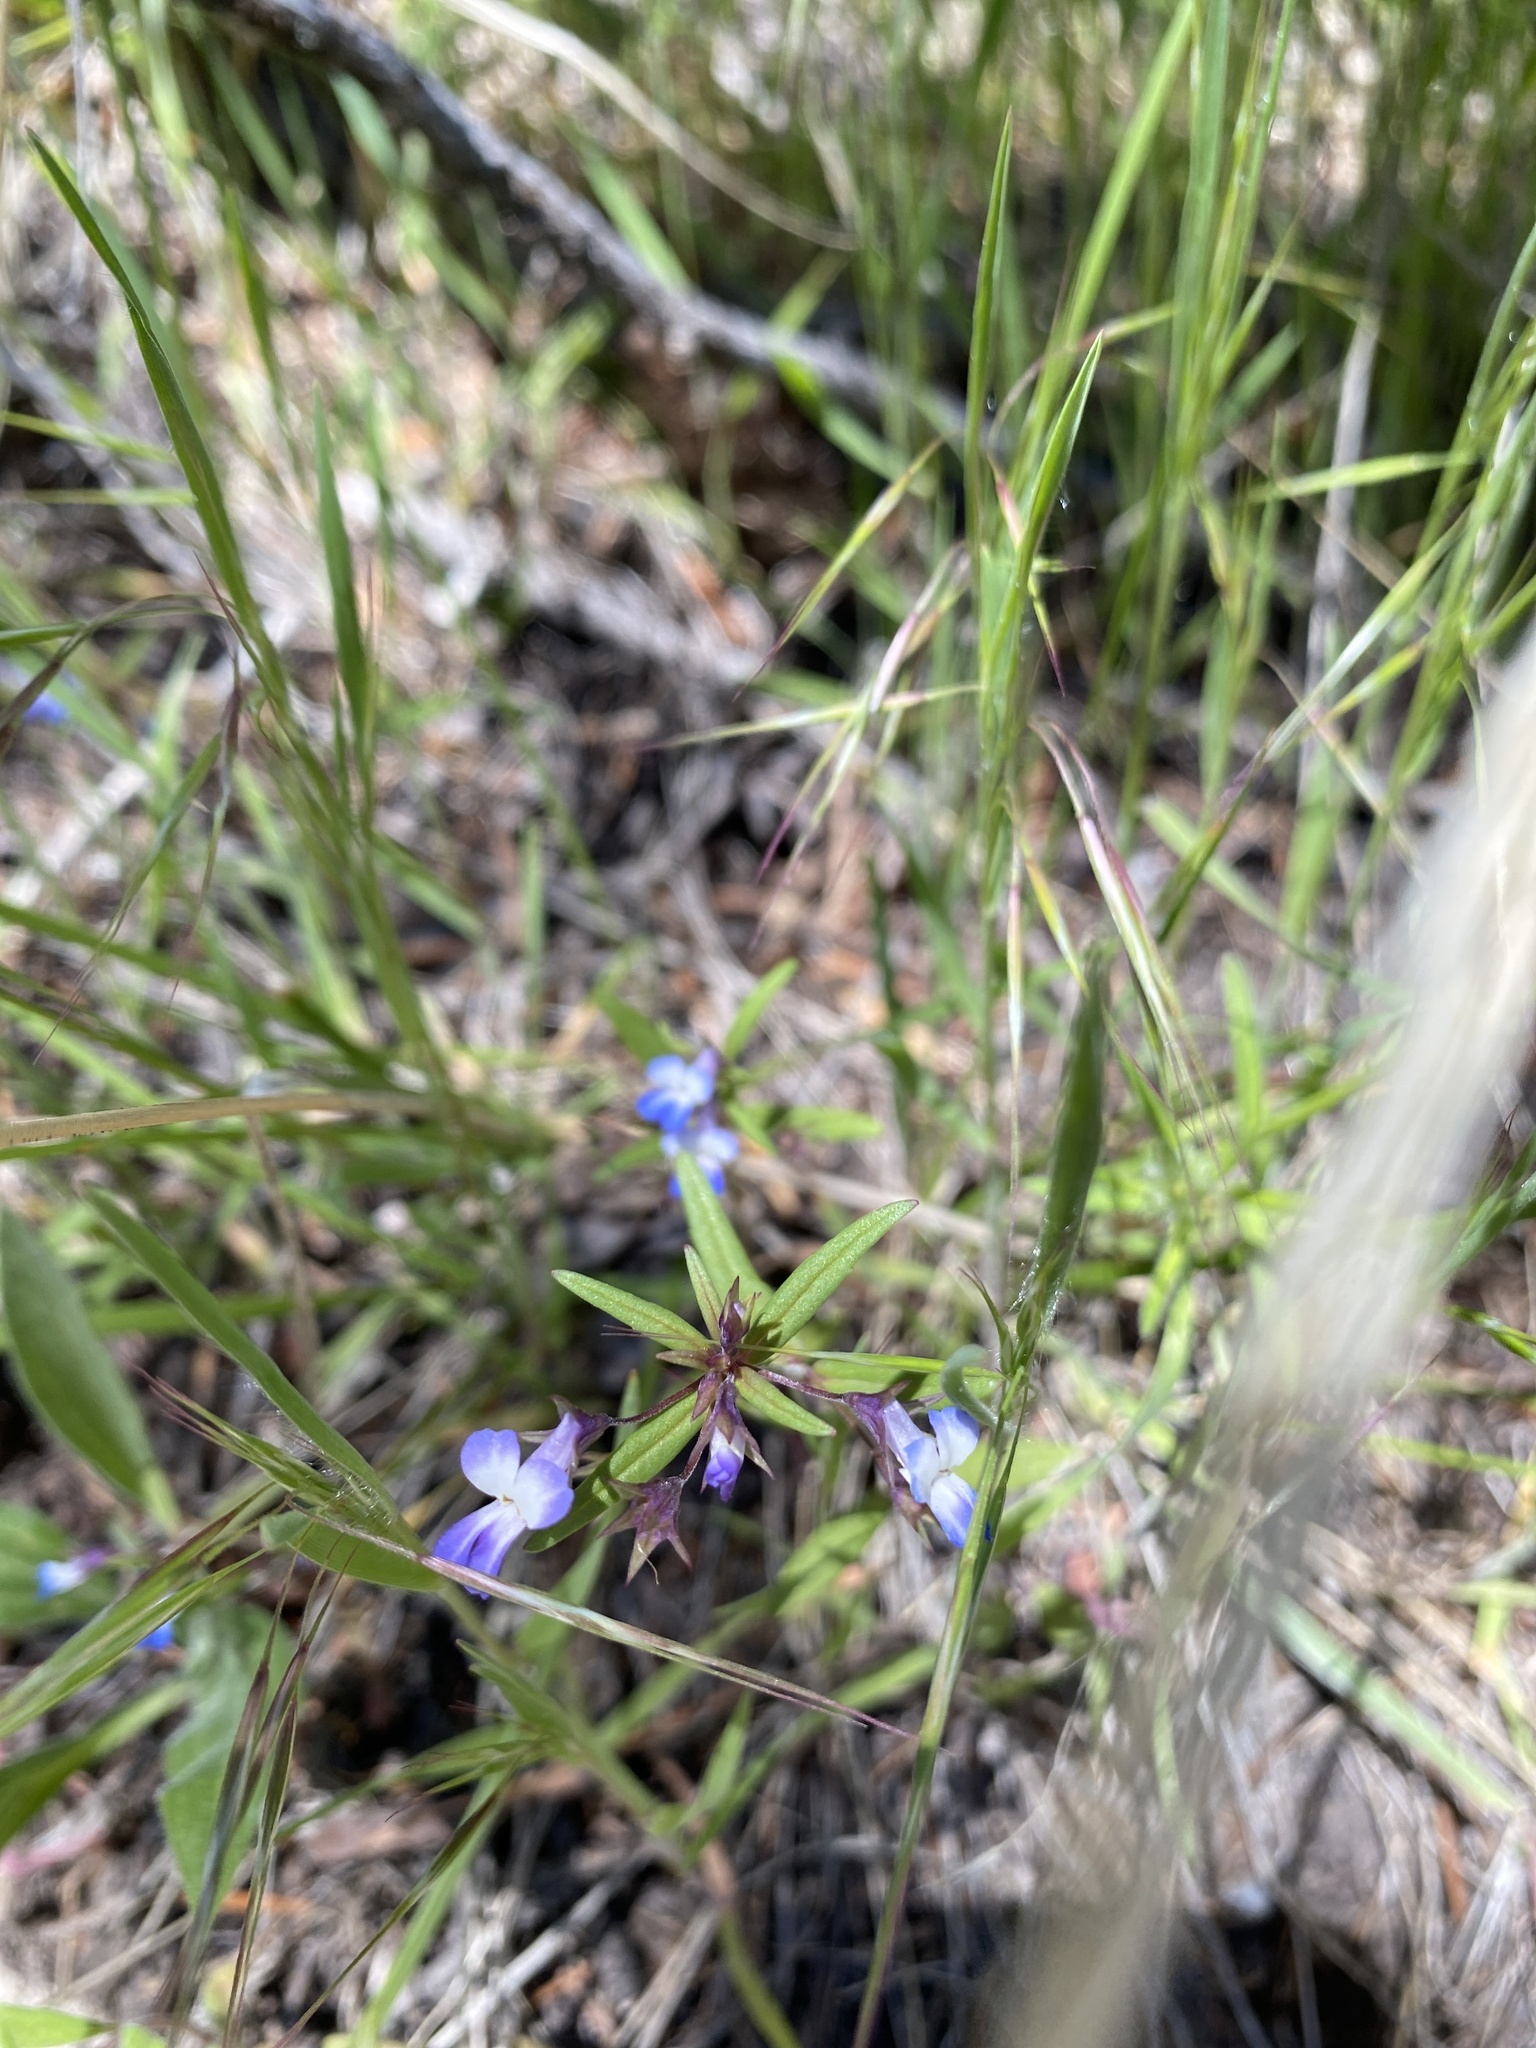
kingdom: Plantae
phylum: Tracheophyta
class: Magnoliopsida
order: Lamiales
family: Plantaginaceae
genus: Collinsia
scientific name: Collinsia parviflora
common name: Blue-lips
